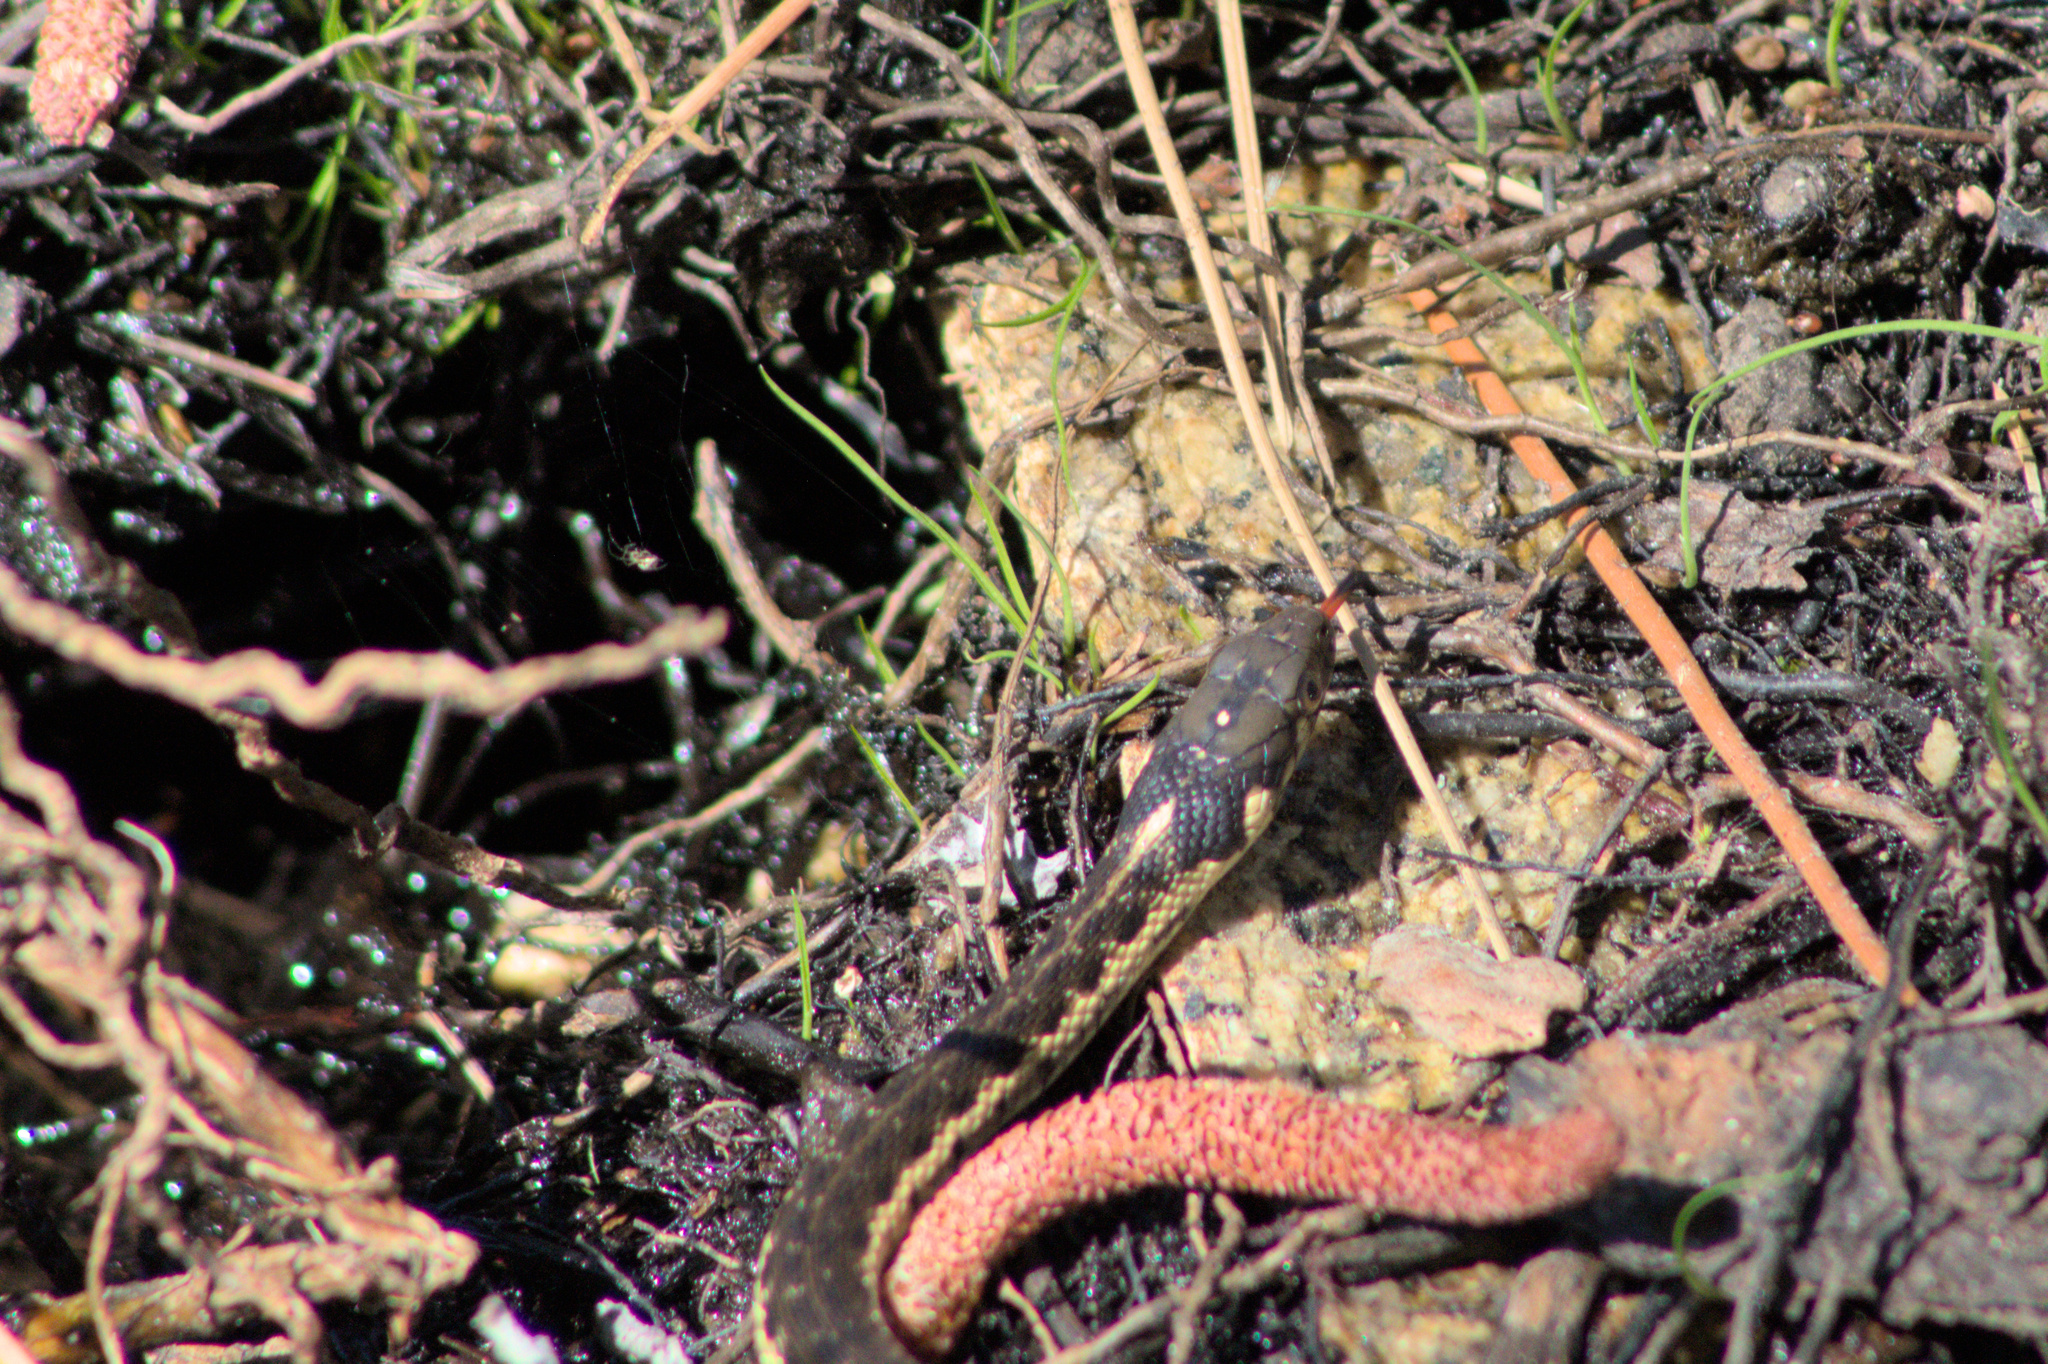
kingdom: Animalia
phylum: Chordata
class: Squamata
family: Colubridae
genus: Thamnophis
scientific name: Thamnophis couchii
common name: Western aquatic garter snake
